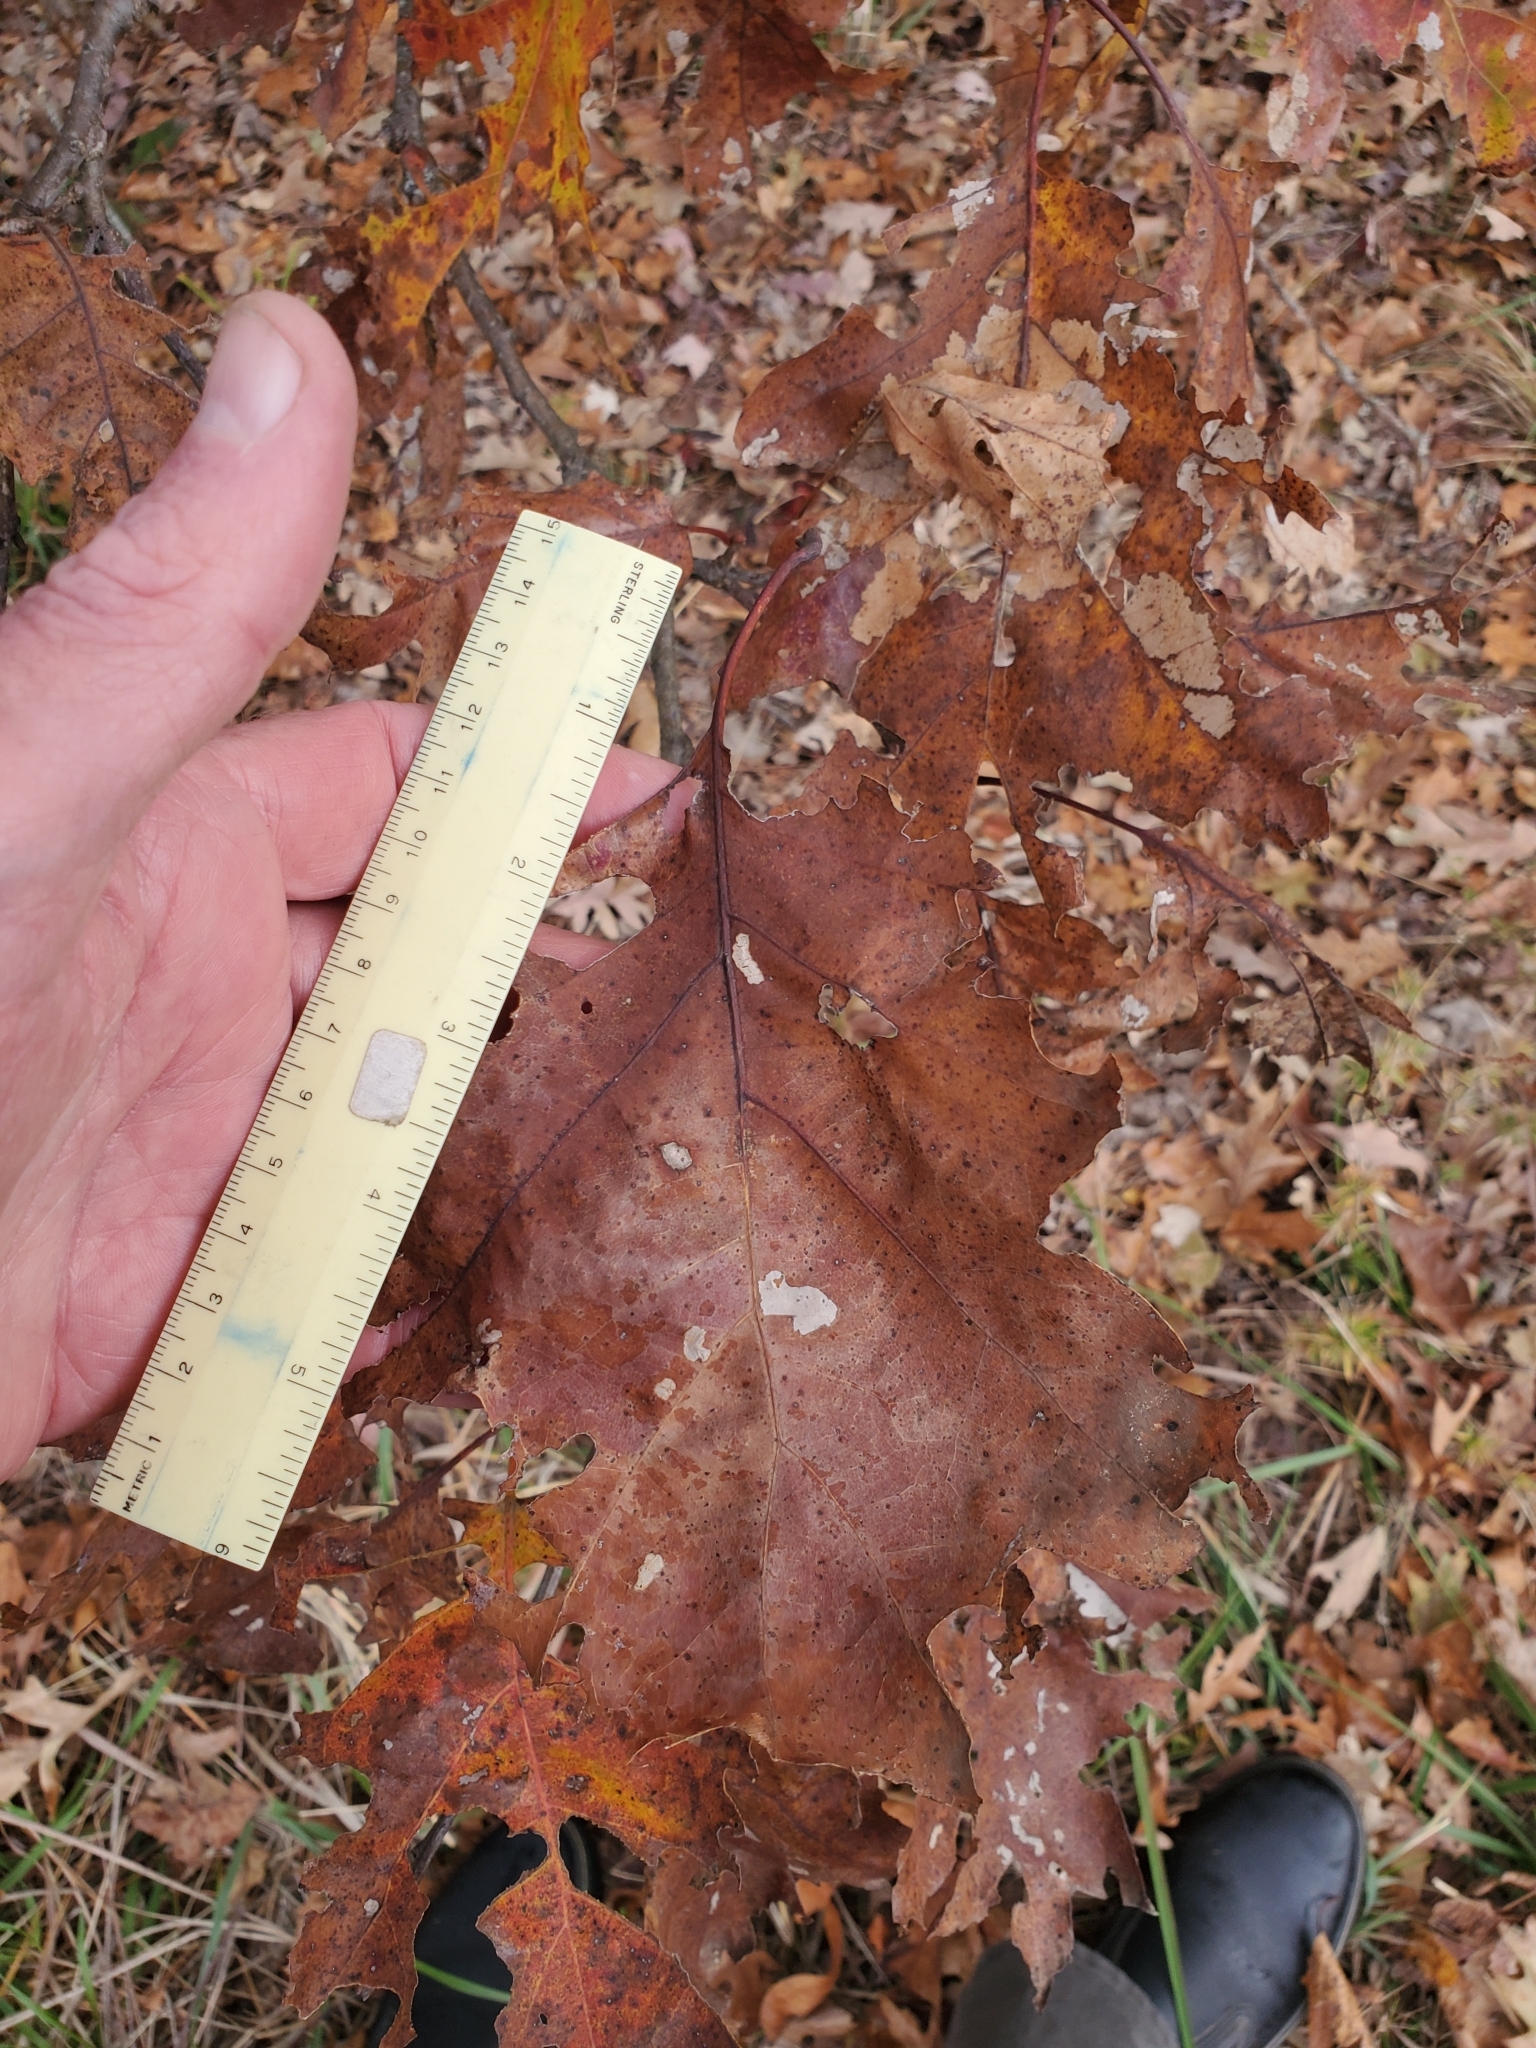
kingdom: Plantae
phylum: Tracheophyta
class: Magnoliopsida
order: Fagales
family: Fagaceae
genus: Quercus
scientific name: Quercus velutina
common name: Black oak
